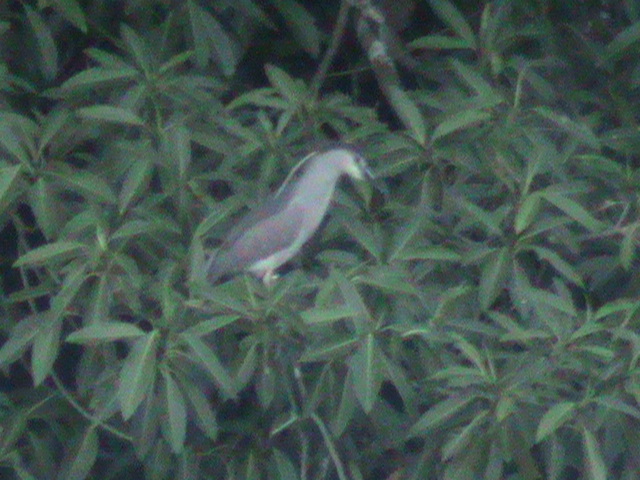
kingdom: Animalia
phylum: Chordata
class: Aves
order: Pelecaniformes
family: Ardeidae
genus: Nycticorax
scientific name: Nycticorax nycticorax
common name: Black-crowned night heron
